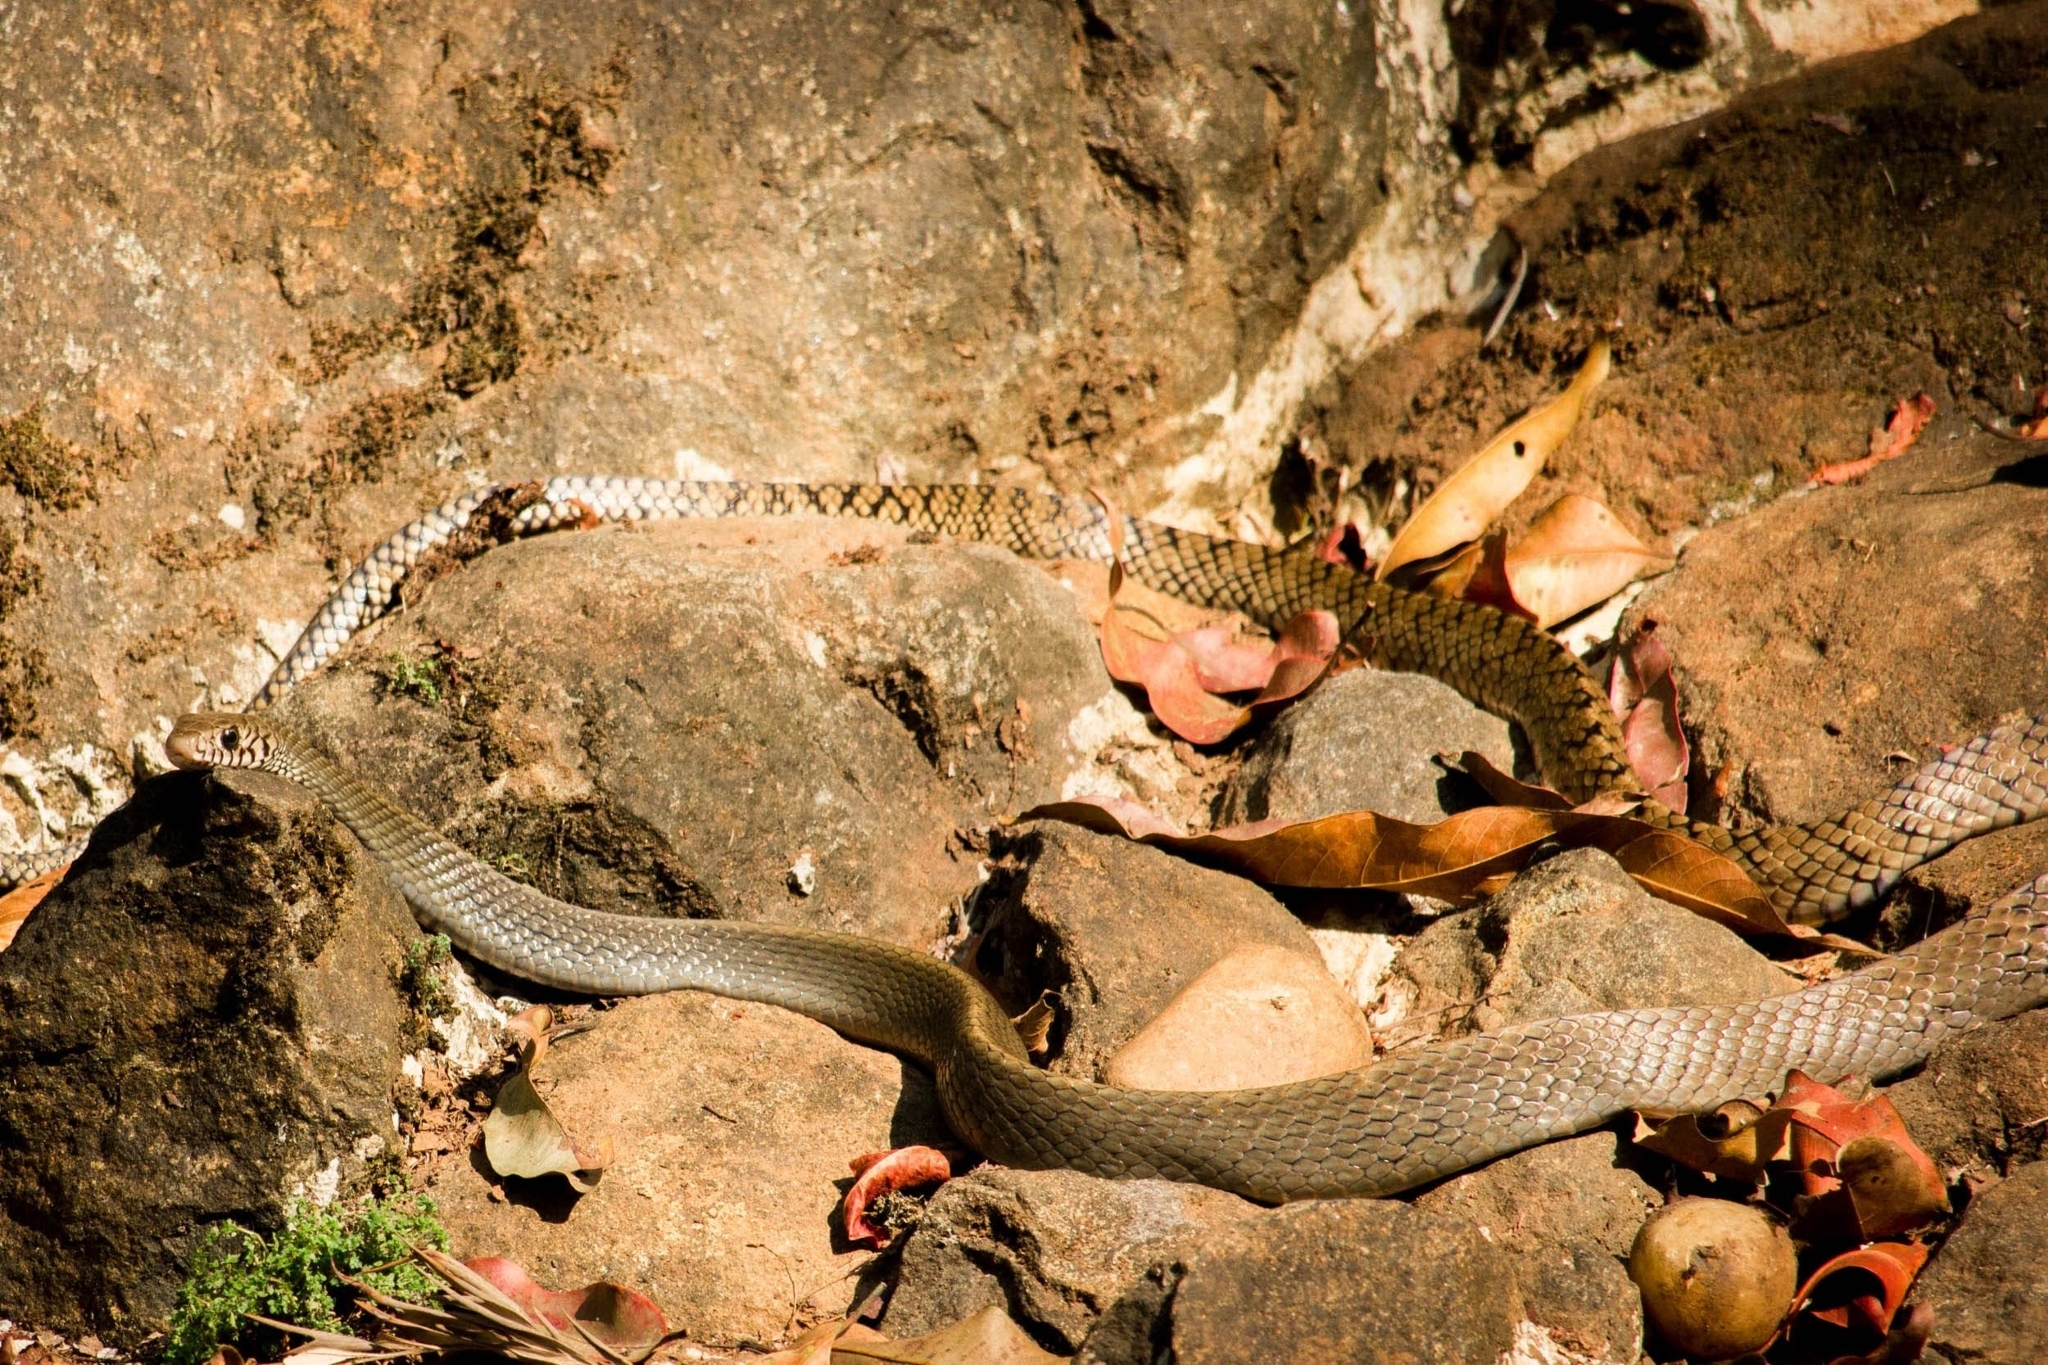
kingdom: Animalia
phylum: Chordata
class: Squamata
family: Colubridae
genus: Ptyas
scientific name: Ptyas mucosa
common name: Oriental ratsnake
